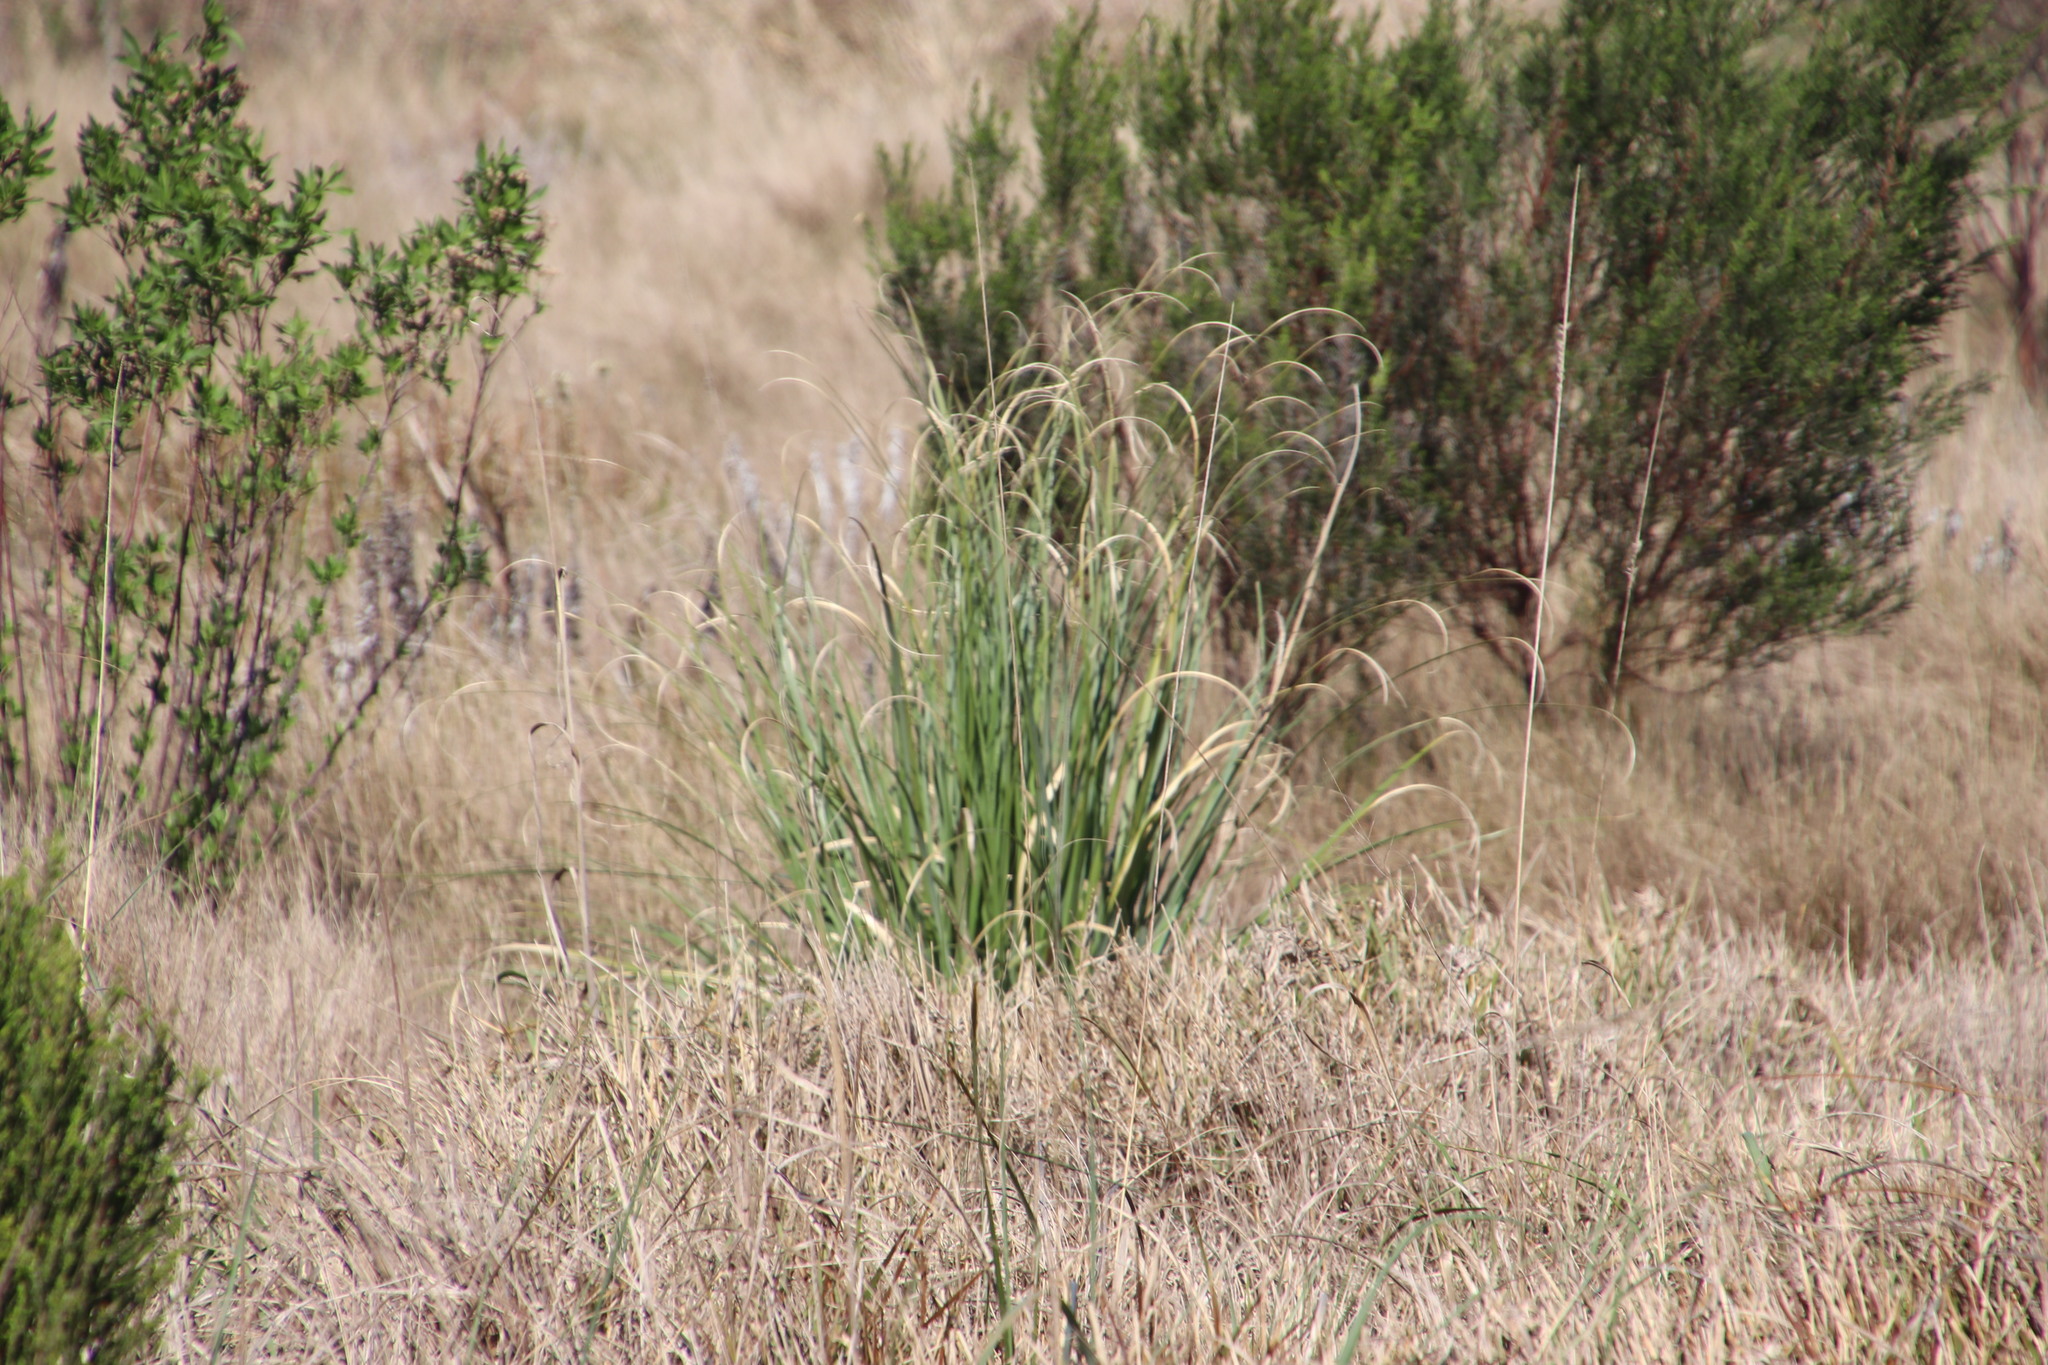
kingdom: Plantae
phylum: Tracheophyta
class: Liliopsida
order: Poales
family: Poaceae
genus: Cortaderia
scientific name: Cortaderia selloana
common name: Uruguayan pampas grass
